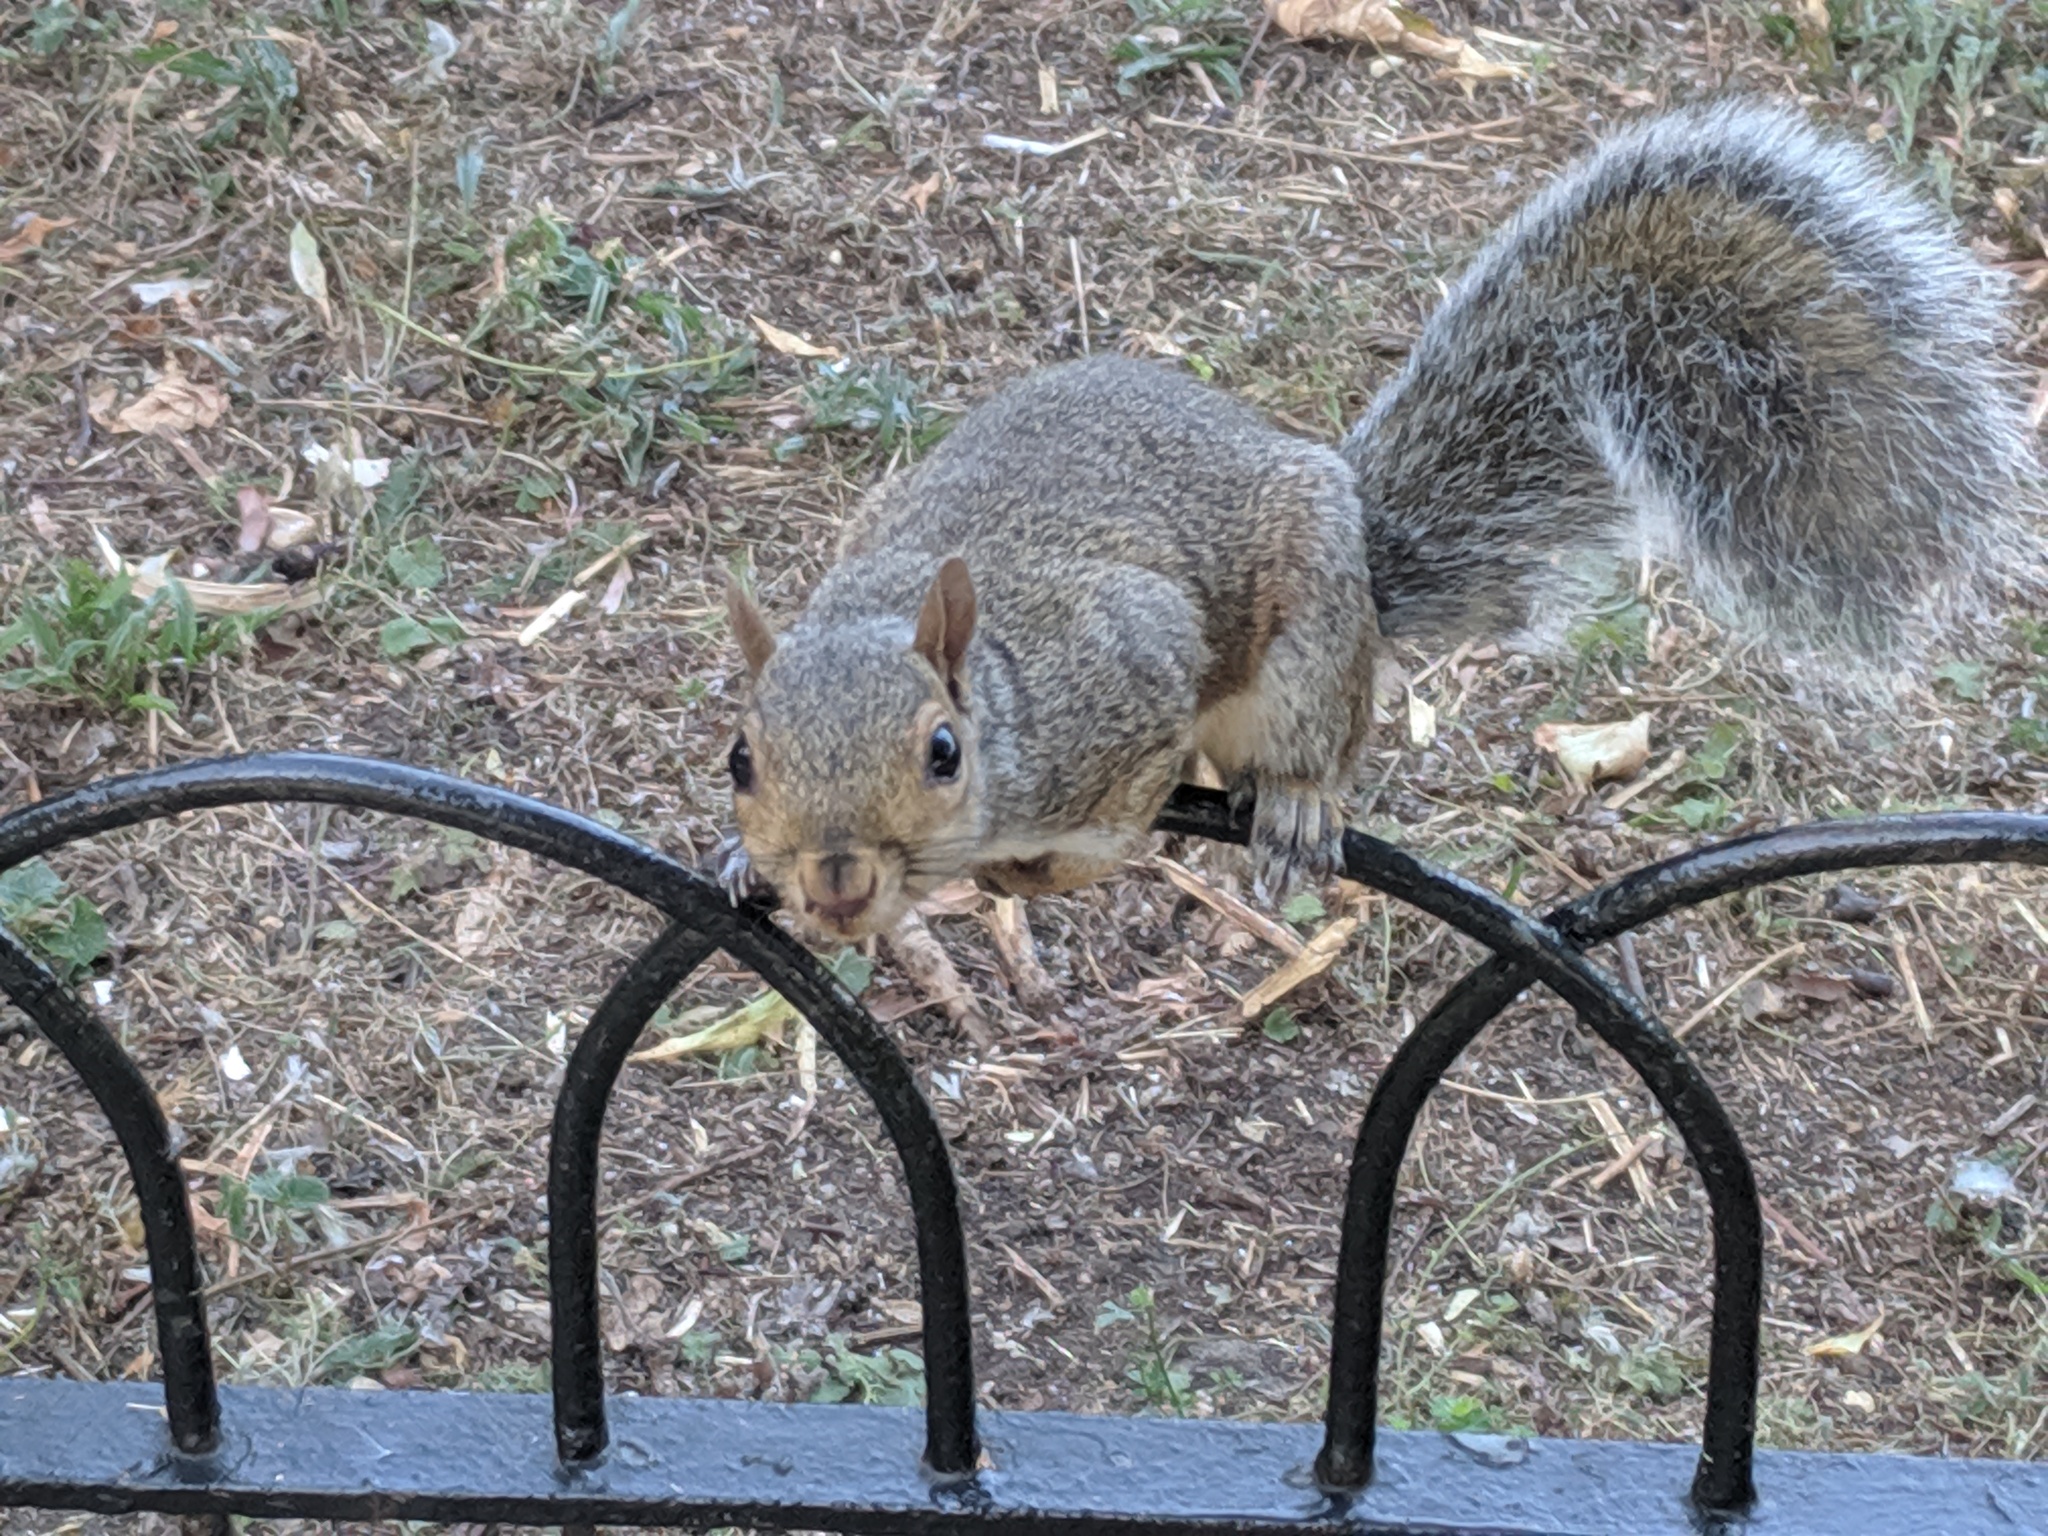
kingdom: Animalia
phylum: Chordata
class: Mammalia
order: Rodentia
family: Sciuridae
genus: Sciurus
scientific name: Sciurus carolinensis
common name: Eastern gray squirrel
